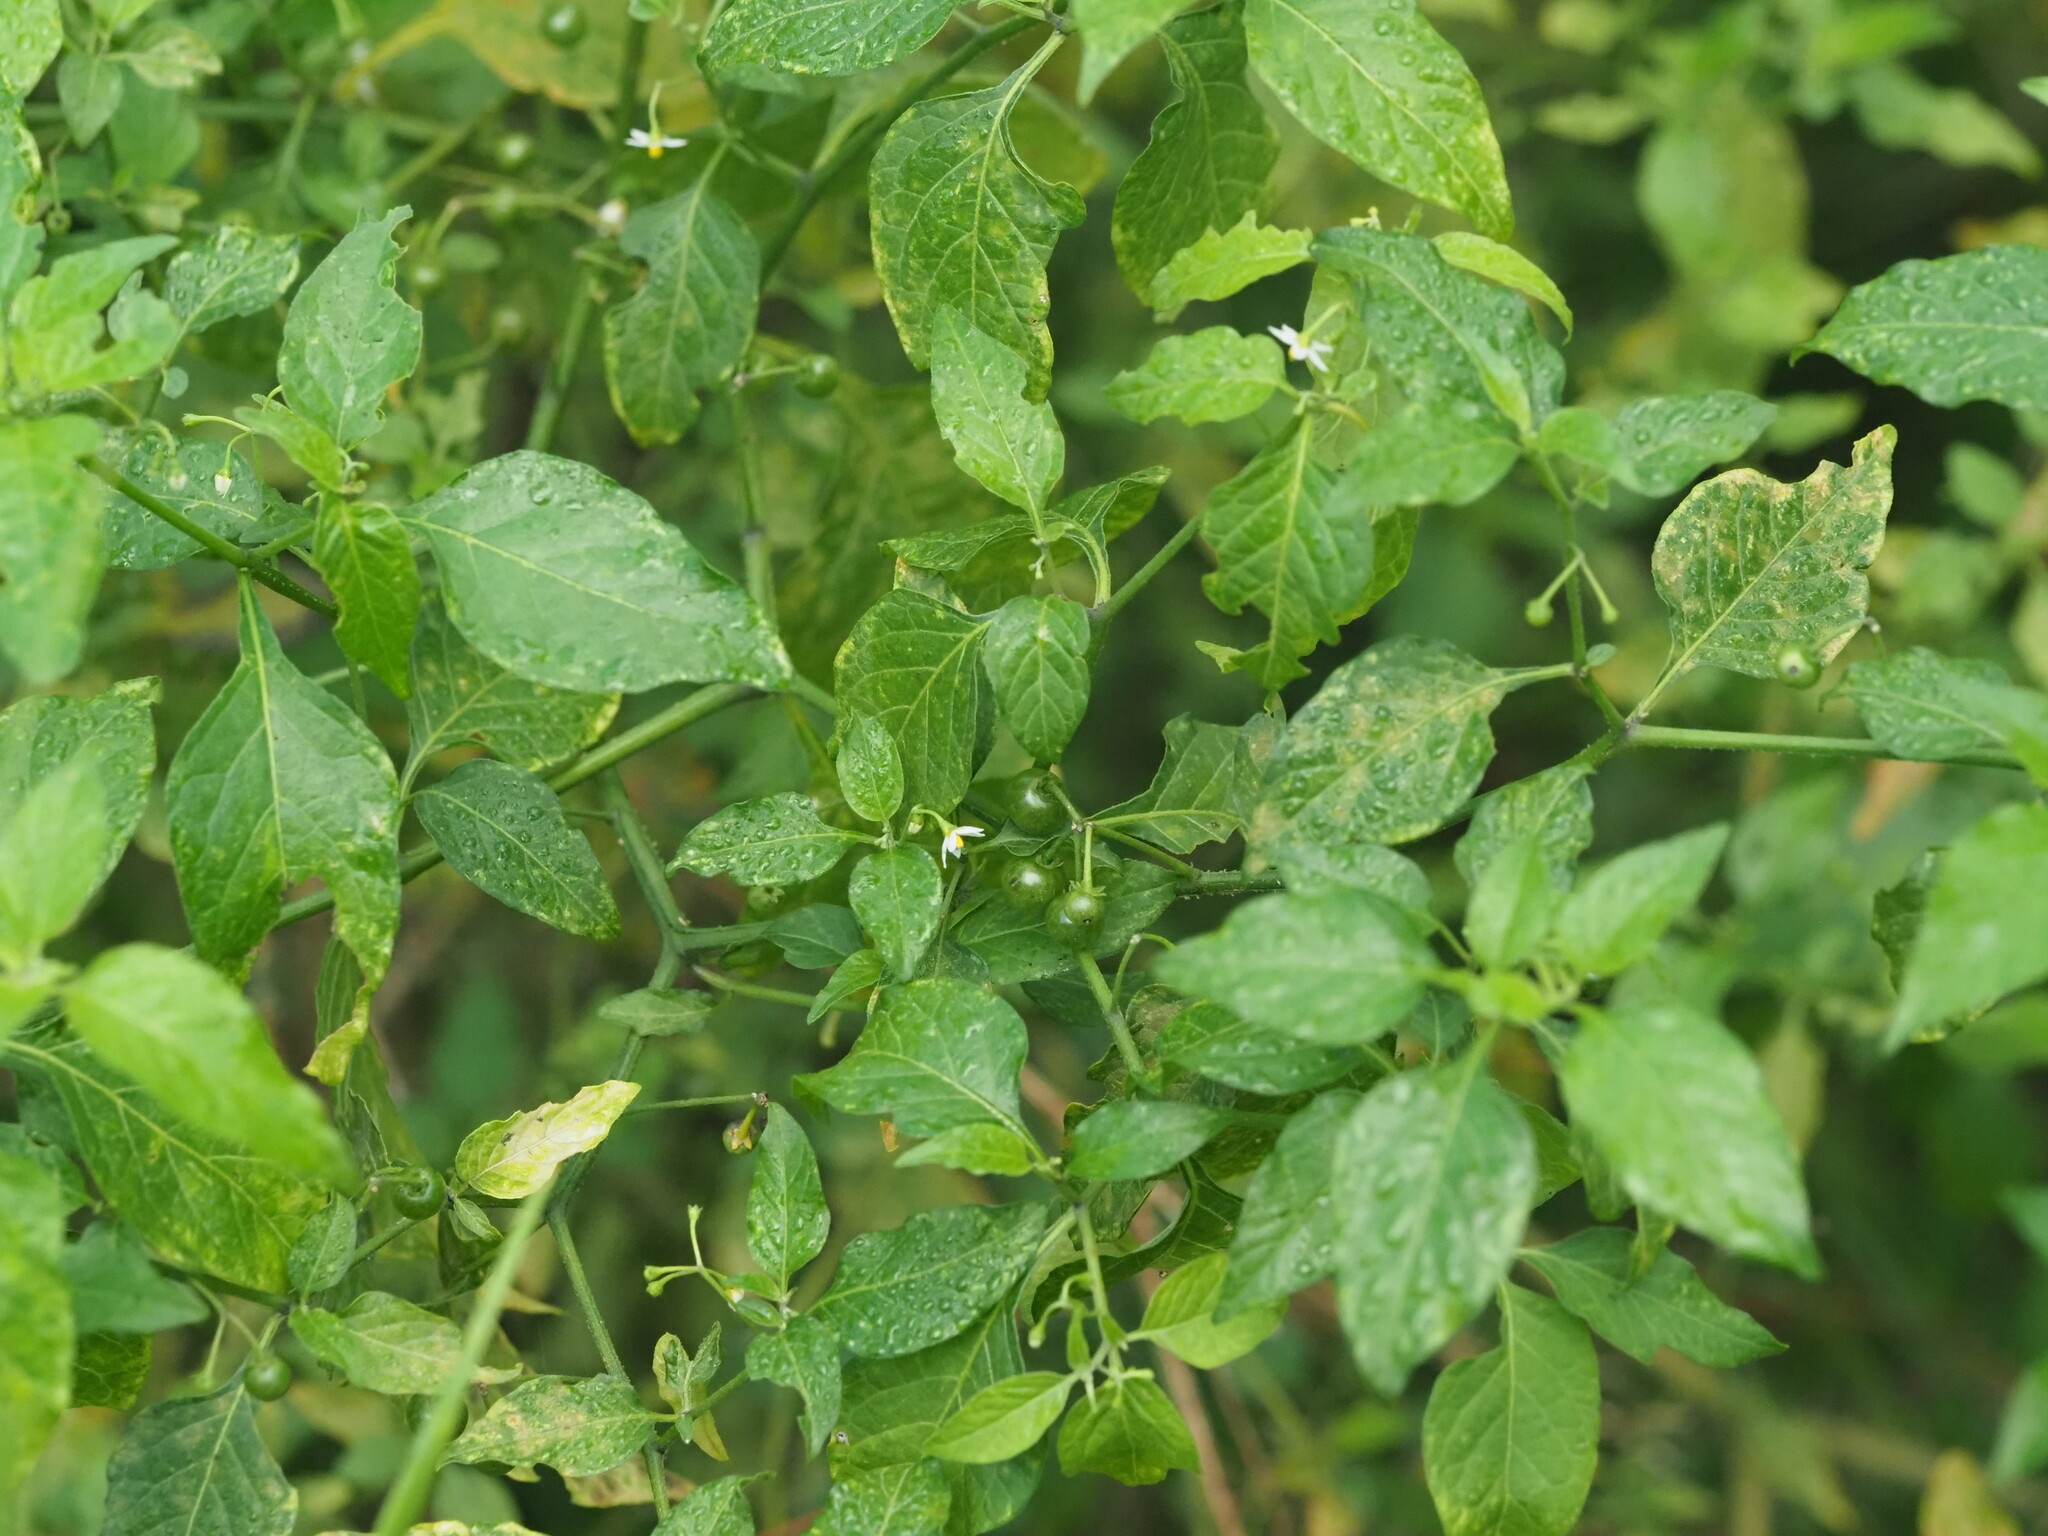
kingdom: Plantae
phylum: Tracheophyta
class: Magnoliopsida
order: Solanales
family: Solanaceae
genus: Solanum
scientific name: Solanum americanum
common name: American black nightshade
